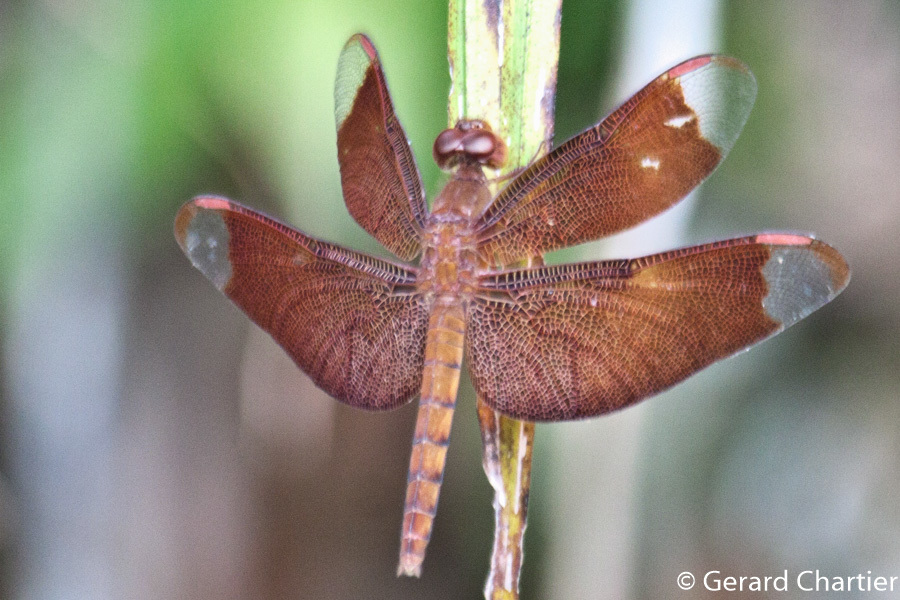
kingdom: Animalia
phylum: Arthropoda
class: Insecta
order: Odonata
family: Libellulidae
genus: Neurothemis
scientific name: Neurothemis fulvia
